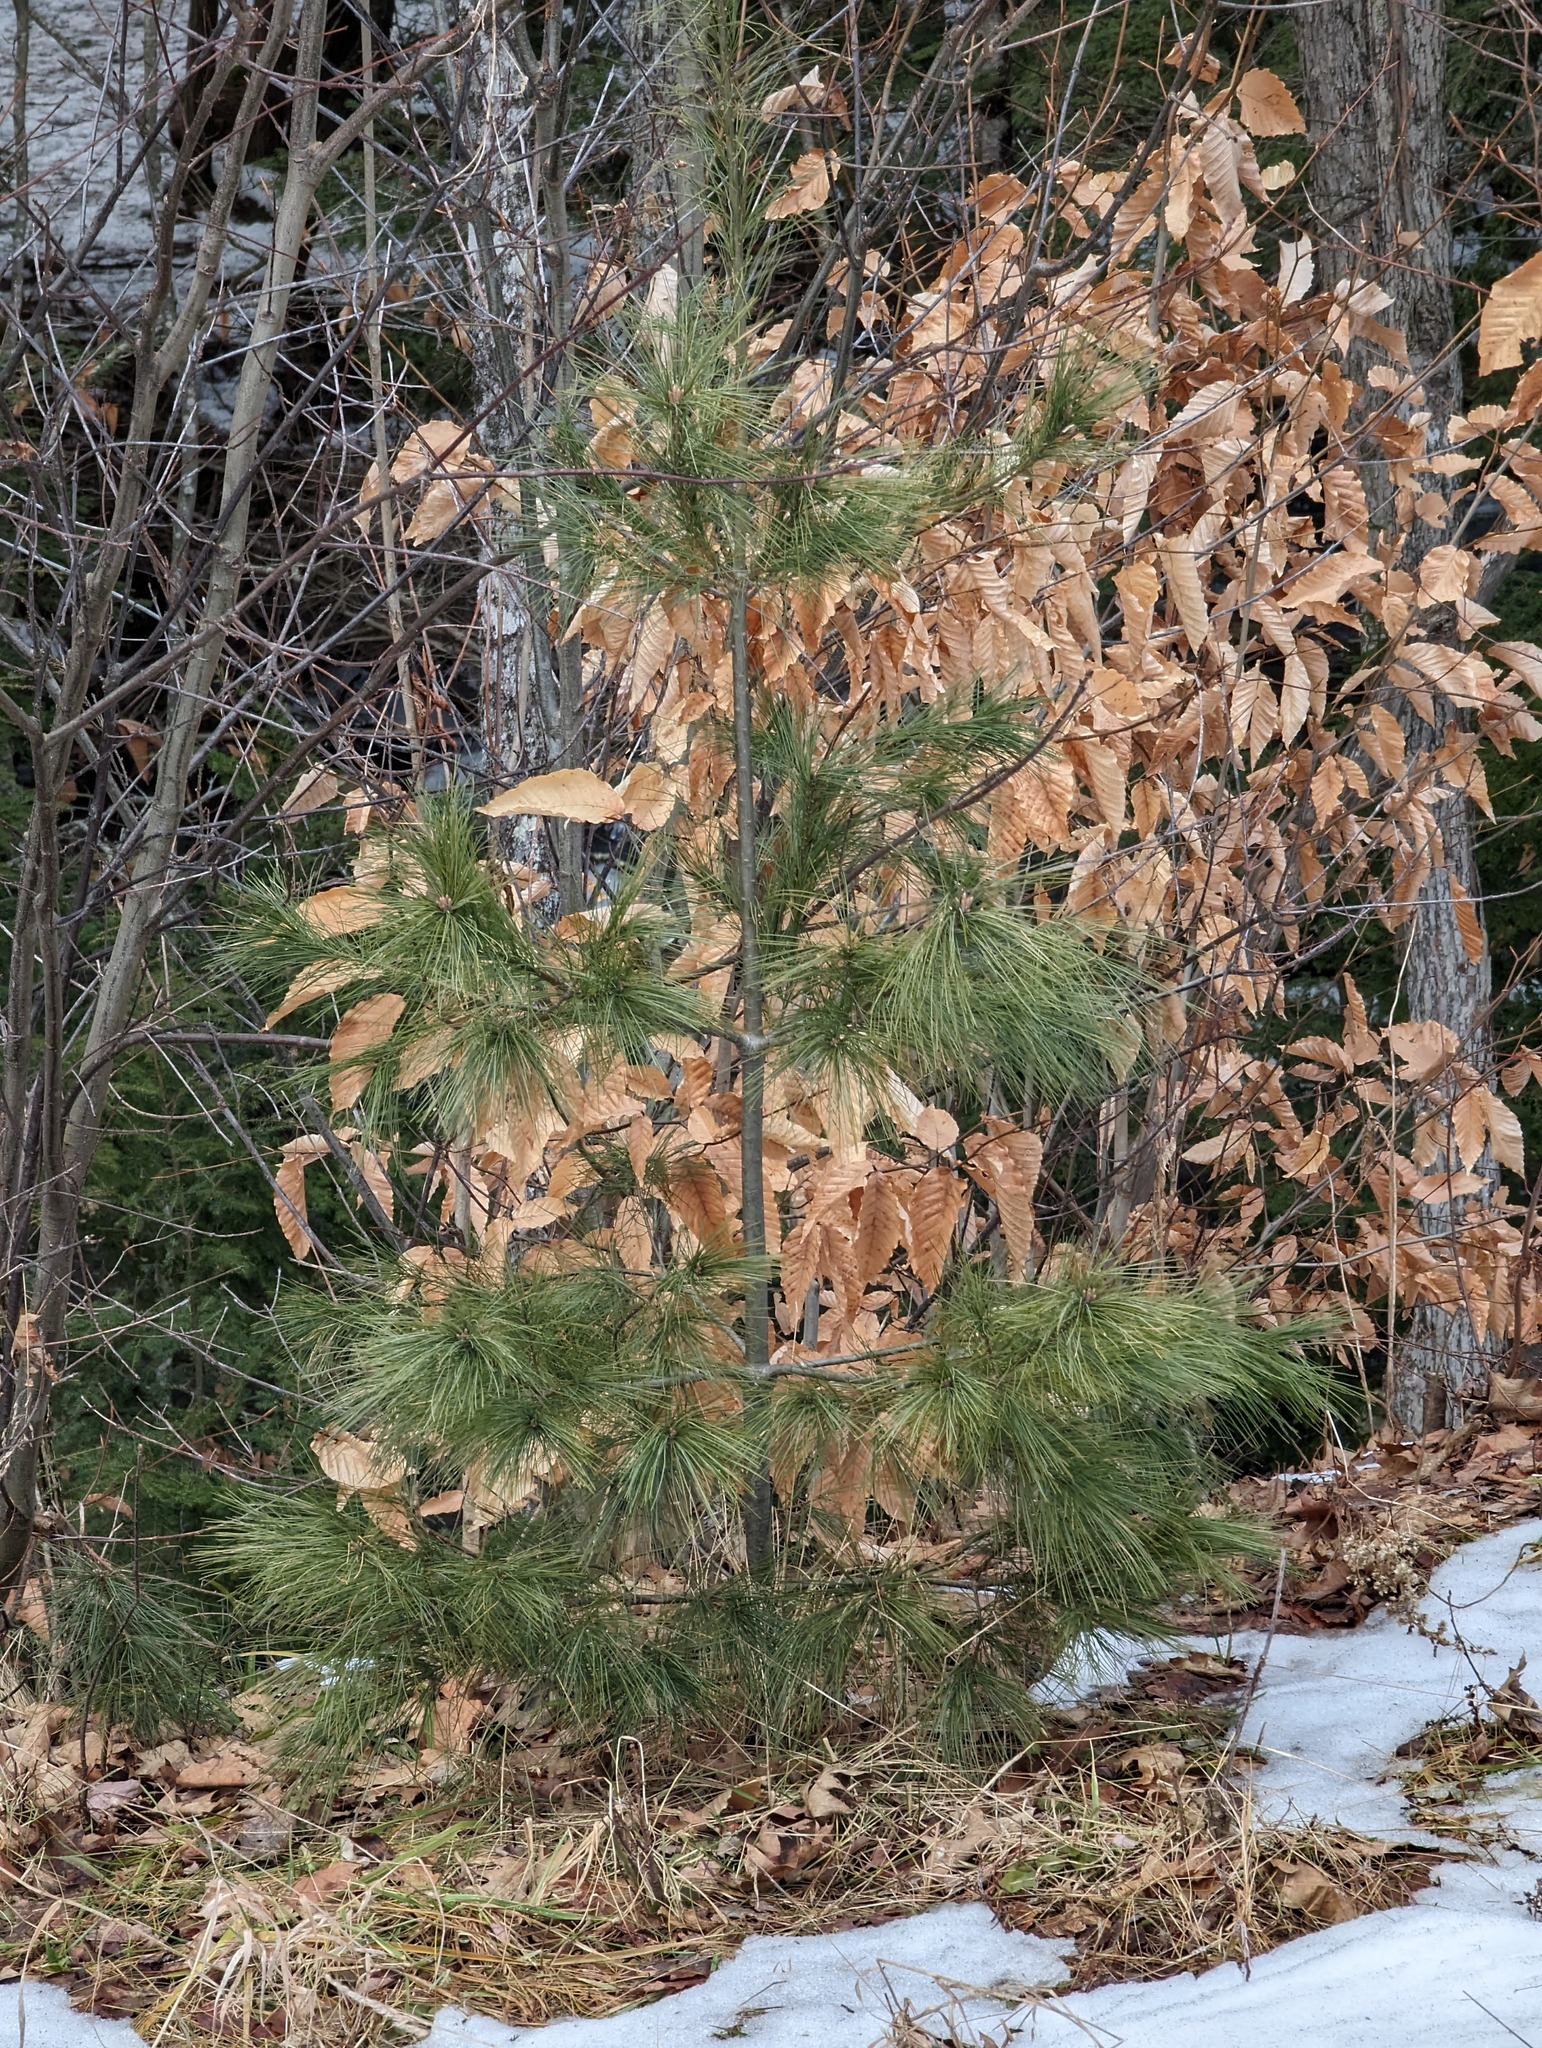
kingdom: Plantae
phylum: Tracheophyta
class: Magnoliopsida
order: Fagales
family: Fagaceae
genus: Fagus
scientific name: Fagus grandifolia
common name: American beech
